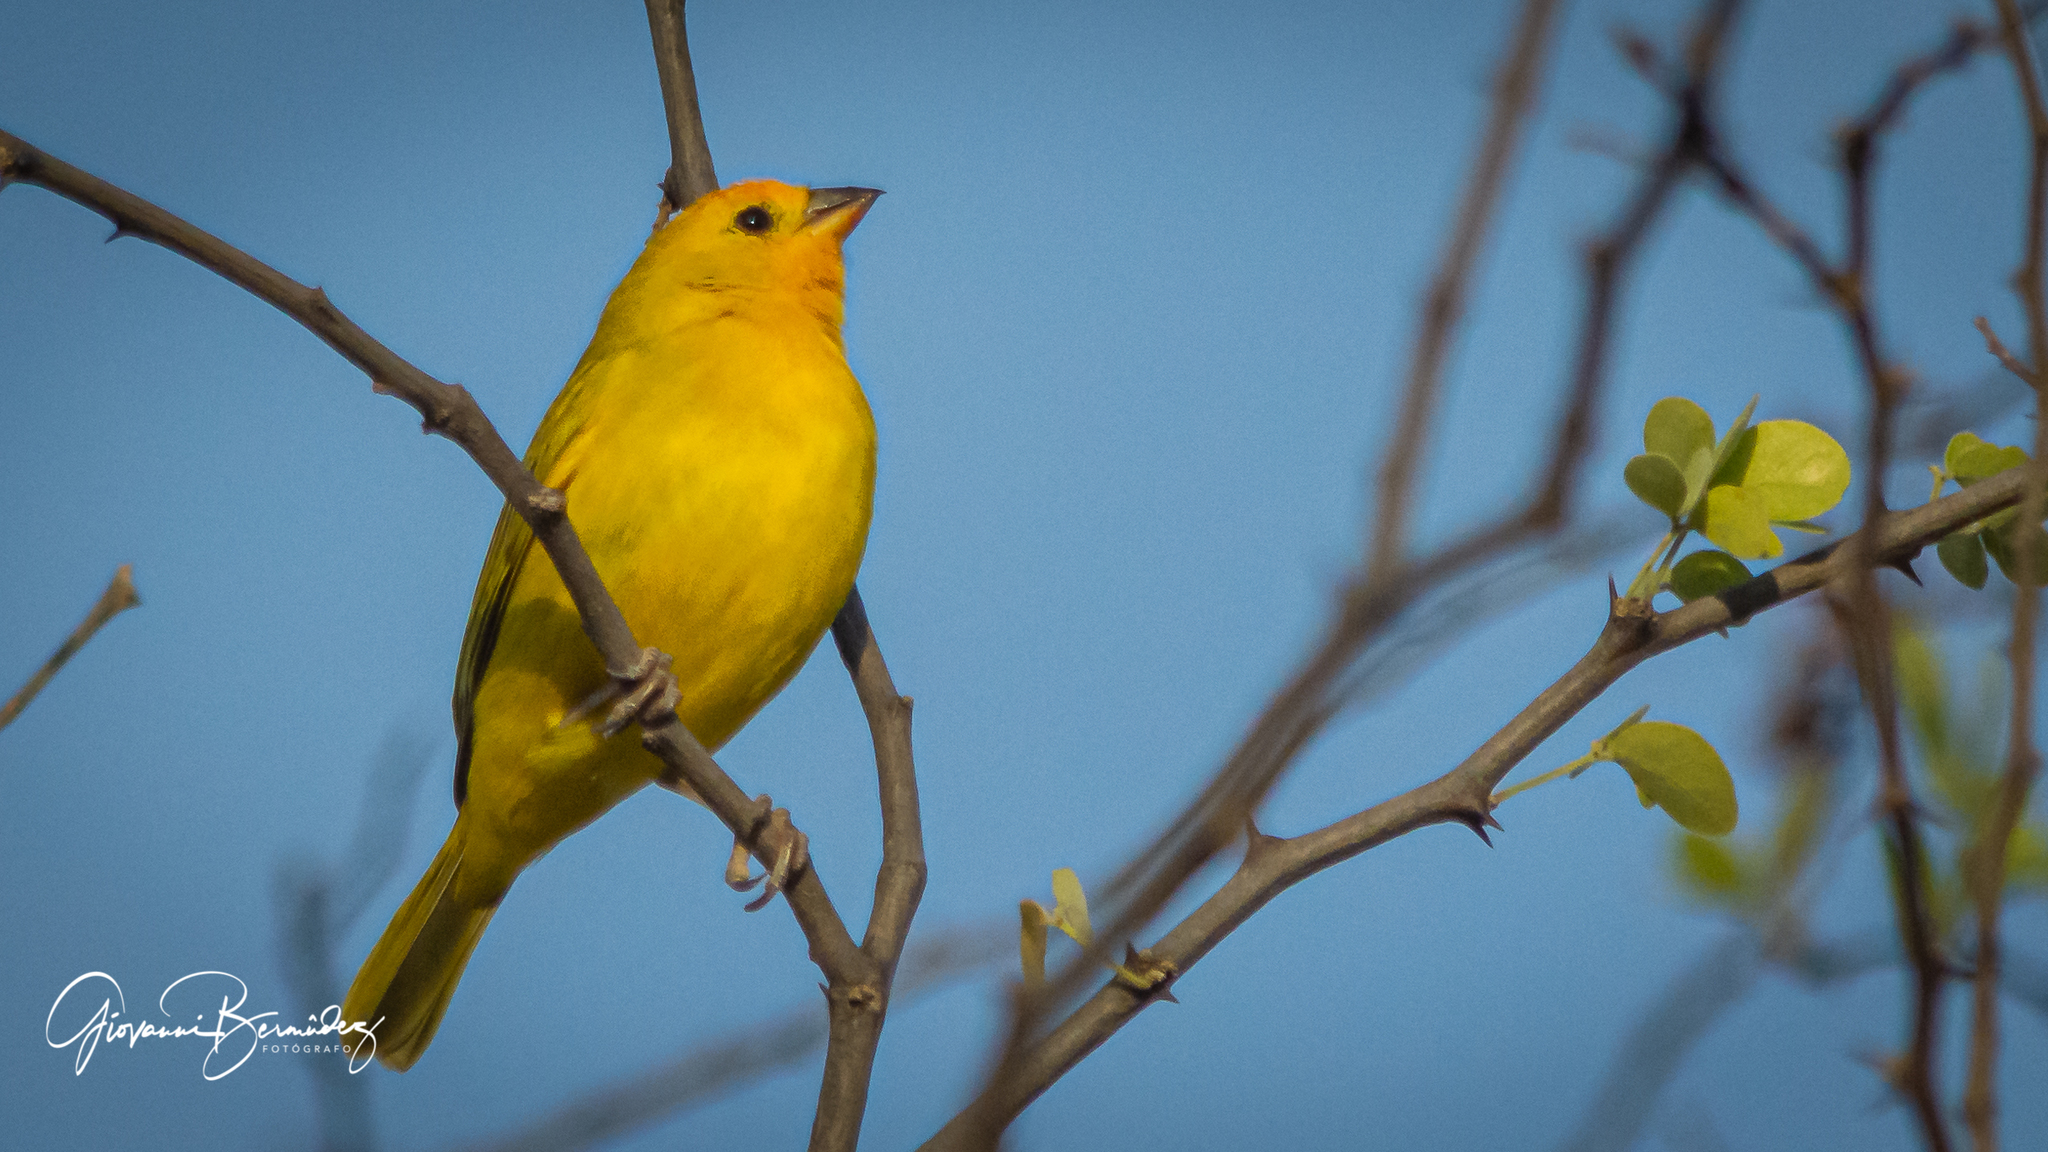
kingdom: Animalia
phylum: Chordata
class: Aves
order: Passeriformes
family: Thraupidae
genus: Sicalis
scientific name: Sicalis flaveola
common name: Saffron finch
